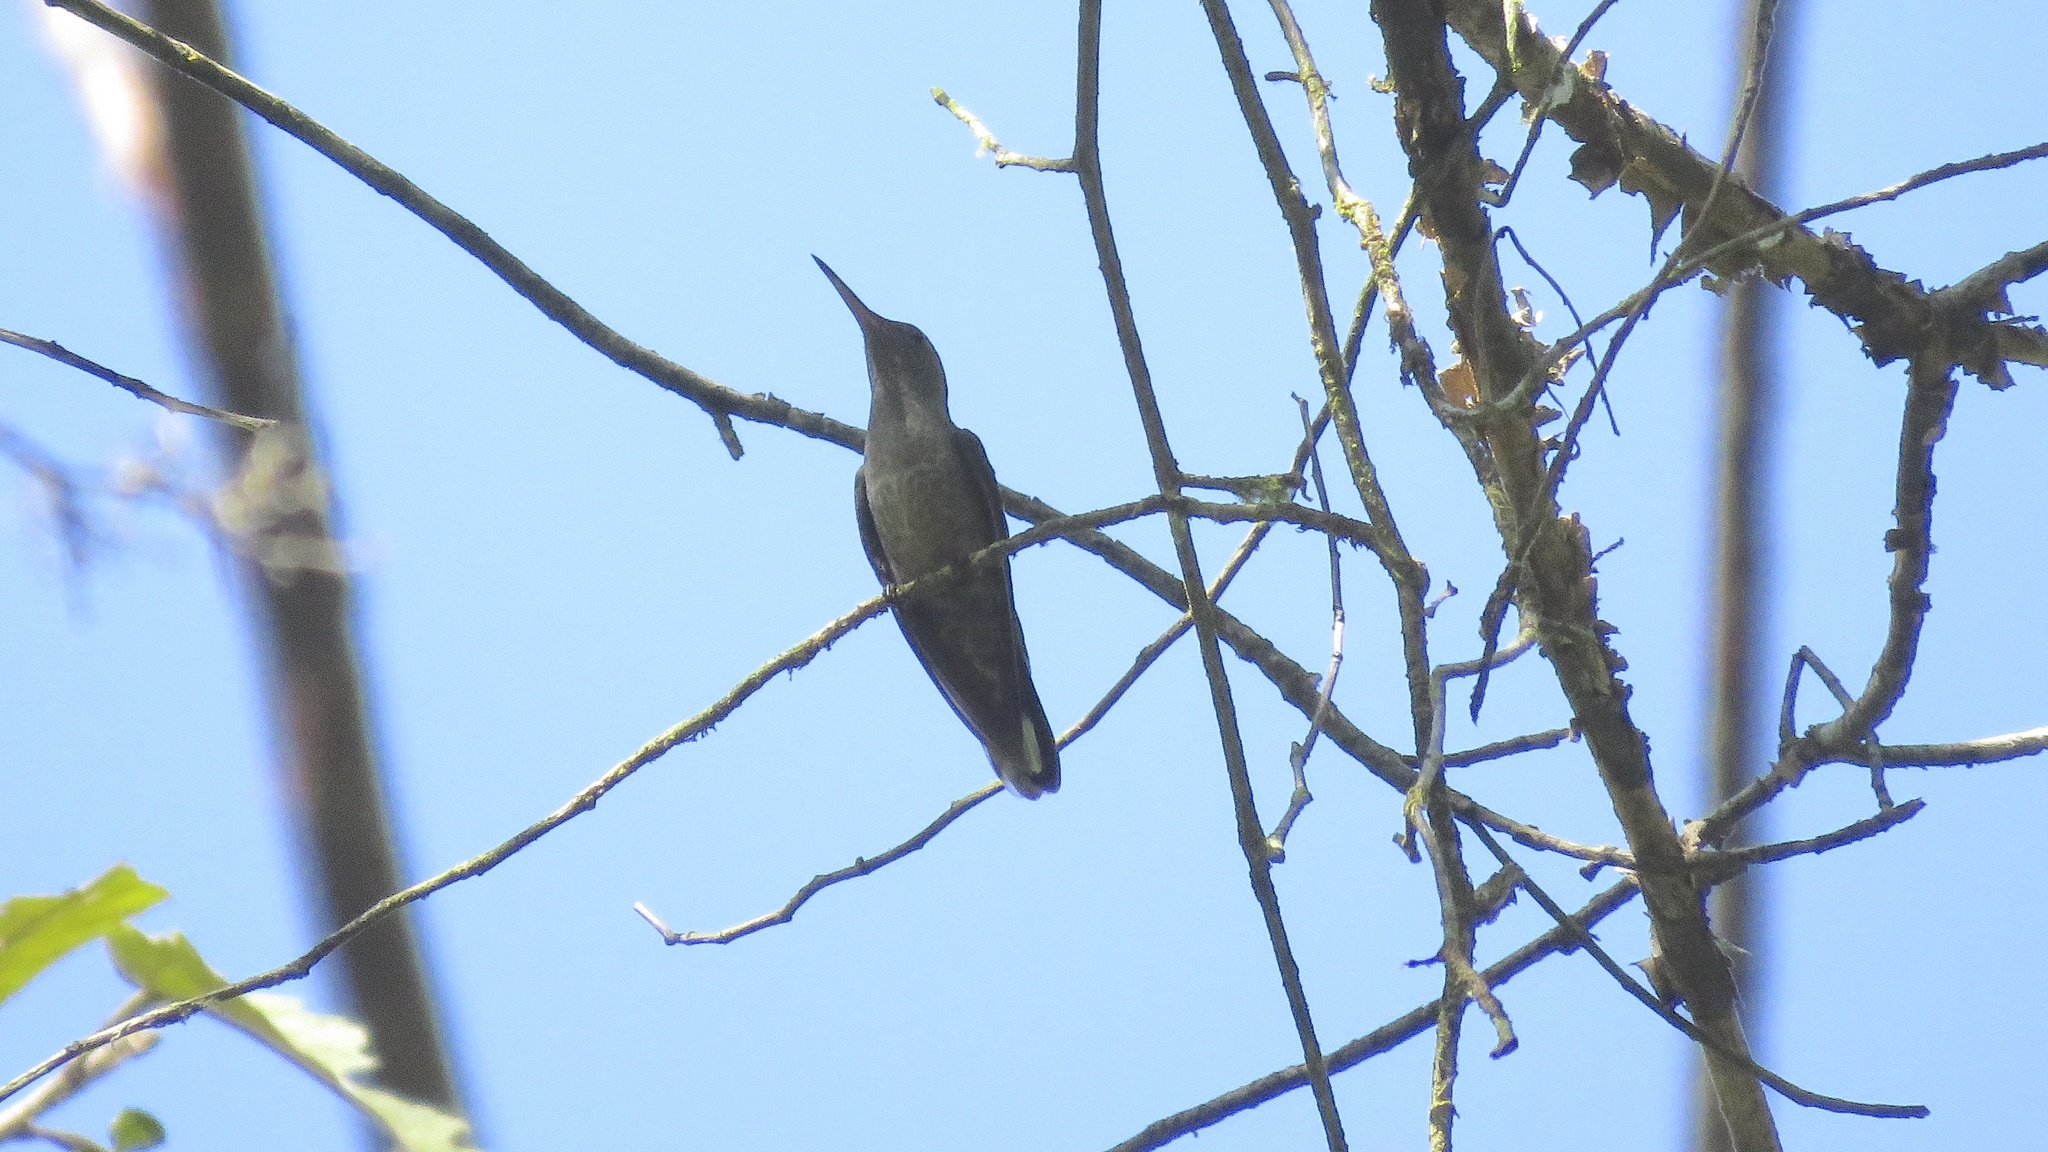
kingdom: Animalia
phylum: Chordata
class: Aves
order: Apodiformes
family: Trochilidae
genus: Phaeochroa
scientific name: Phaeochroa cuvierii
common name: Scaly-breasted hummingbird
